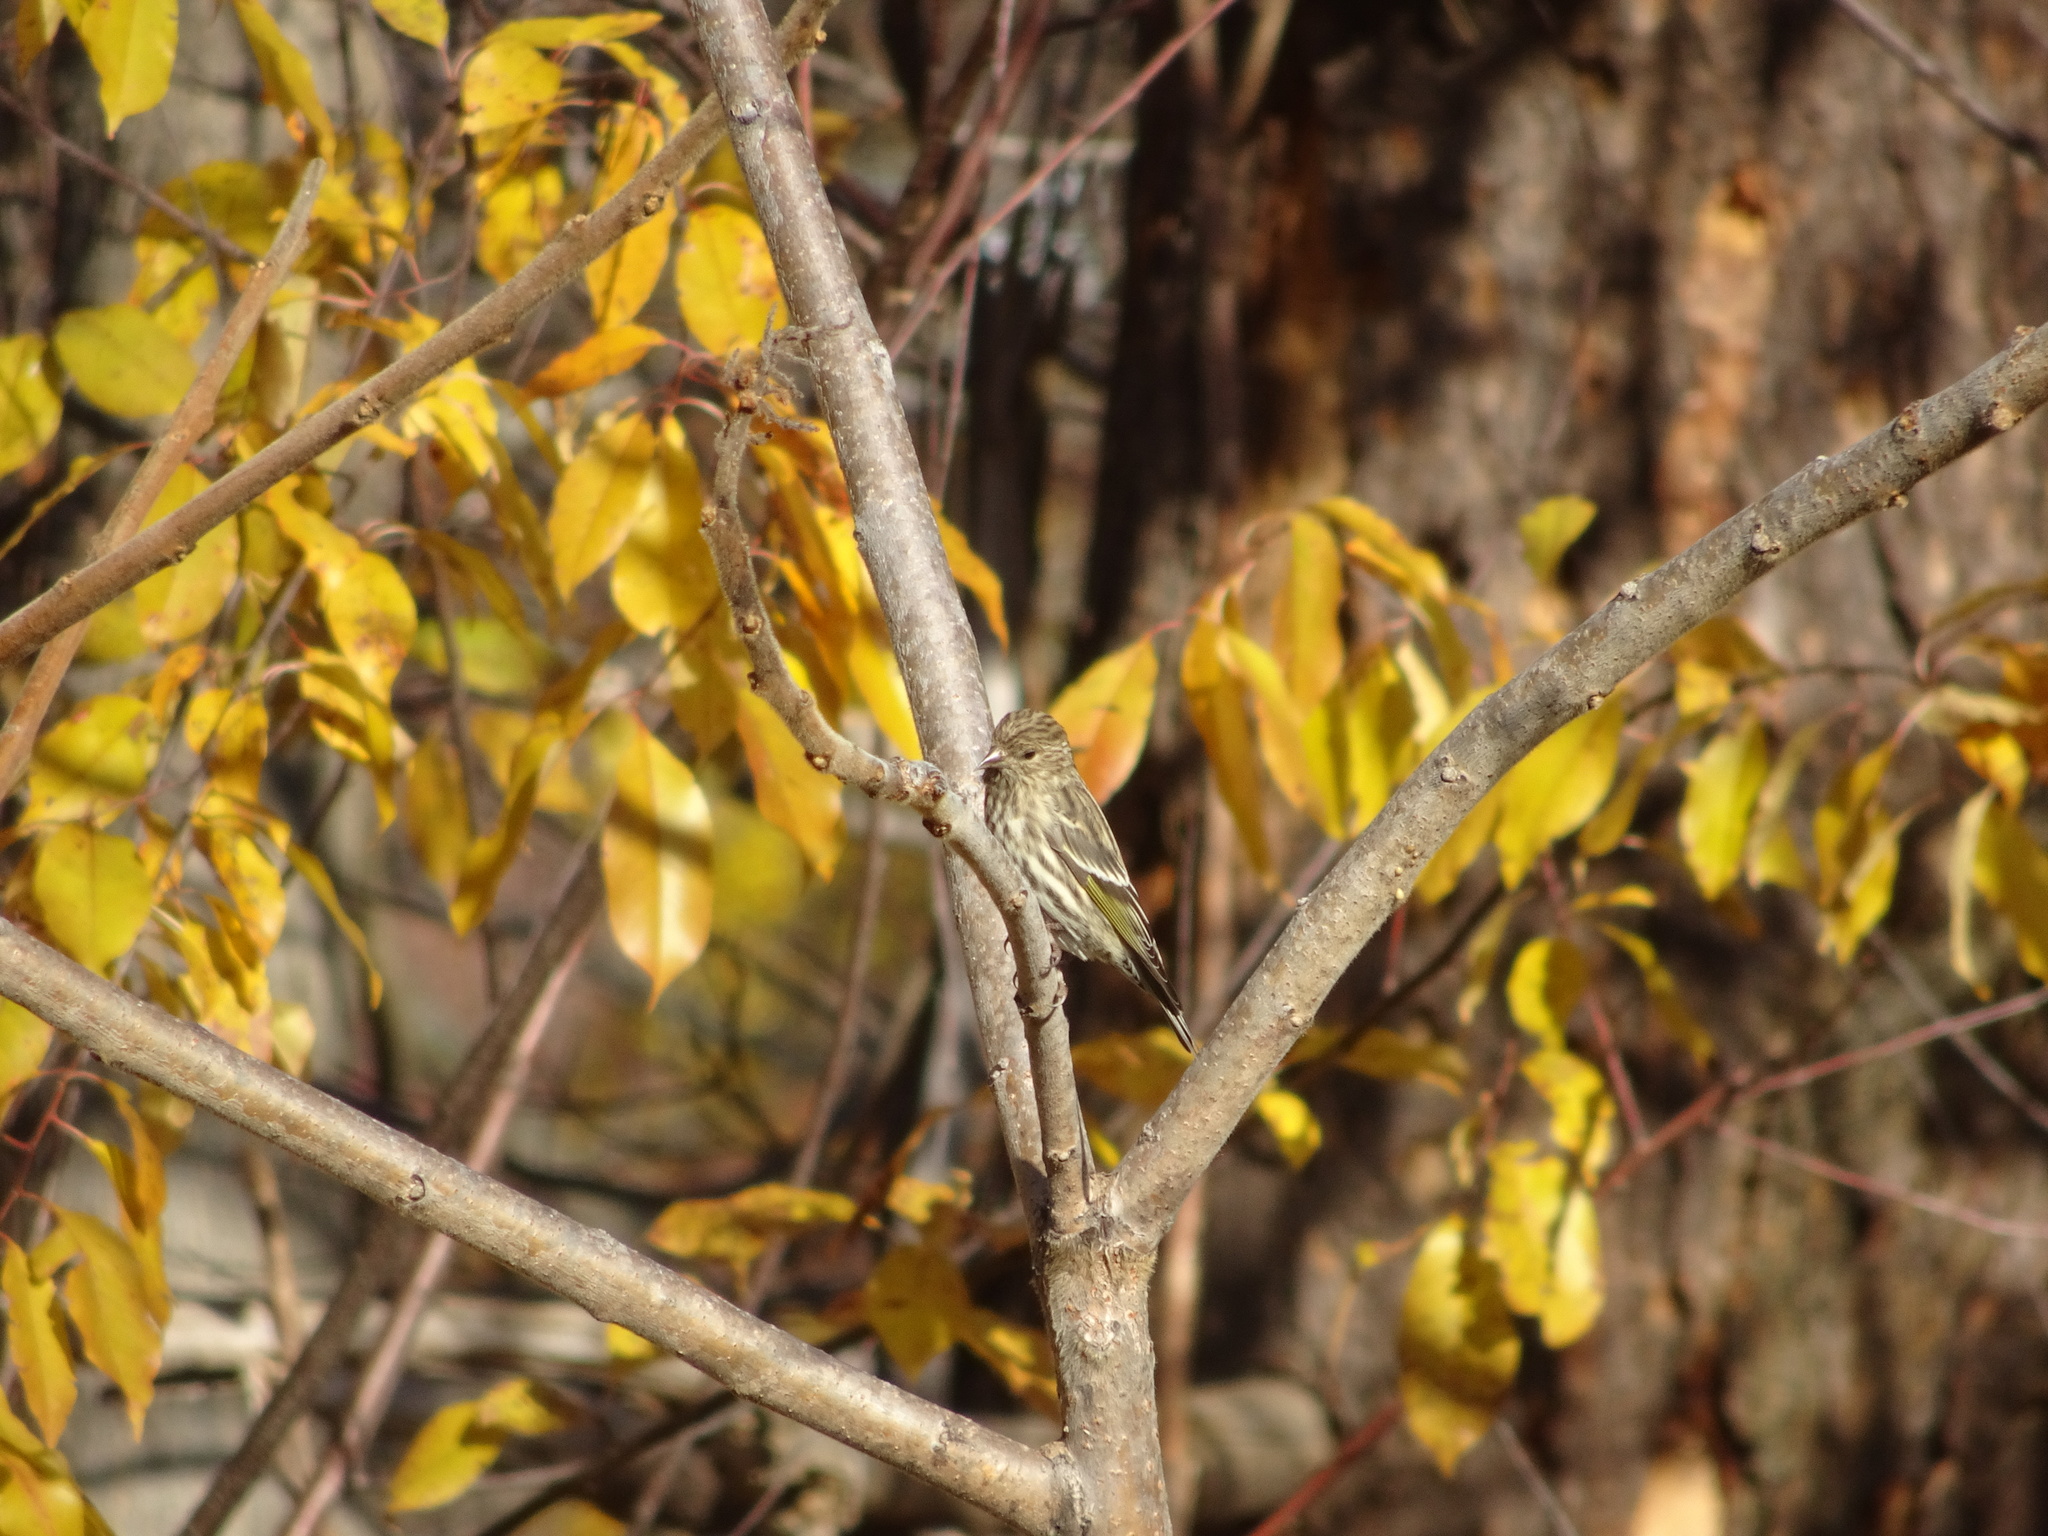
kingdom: Animalia
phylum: Chordata
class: Aves
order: Passeriformes
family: Fringillidae
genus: Spinus
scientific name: Spinus pinus
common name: Pine siskin
